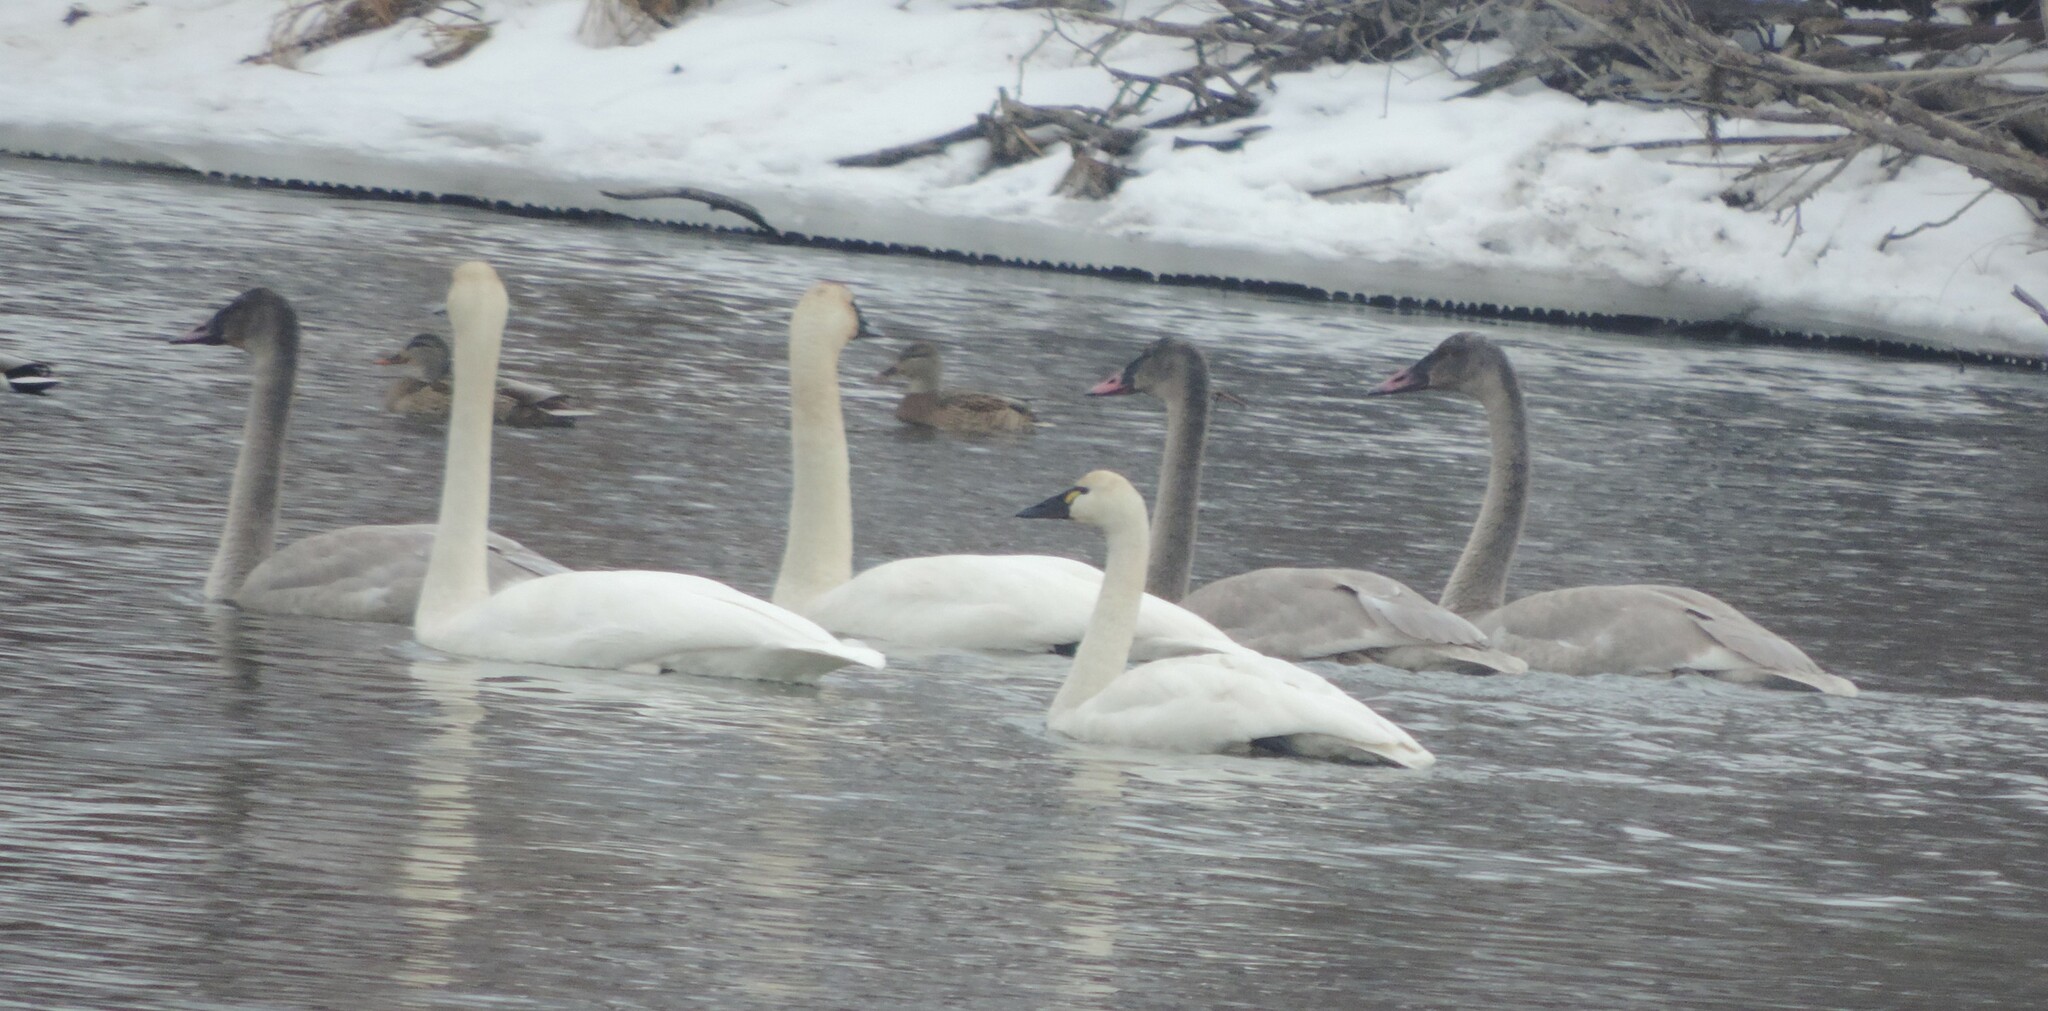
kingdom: Animalia
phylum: Chordata
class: Aves
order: Anseriformes
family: Anatidae
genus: Cygnus
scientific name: Cygnus buccinator
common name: Trumpeter swan
